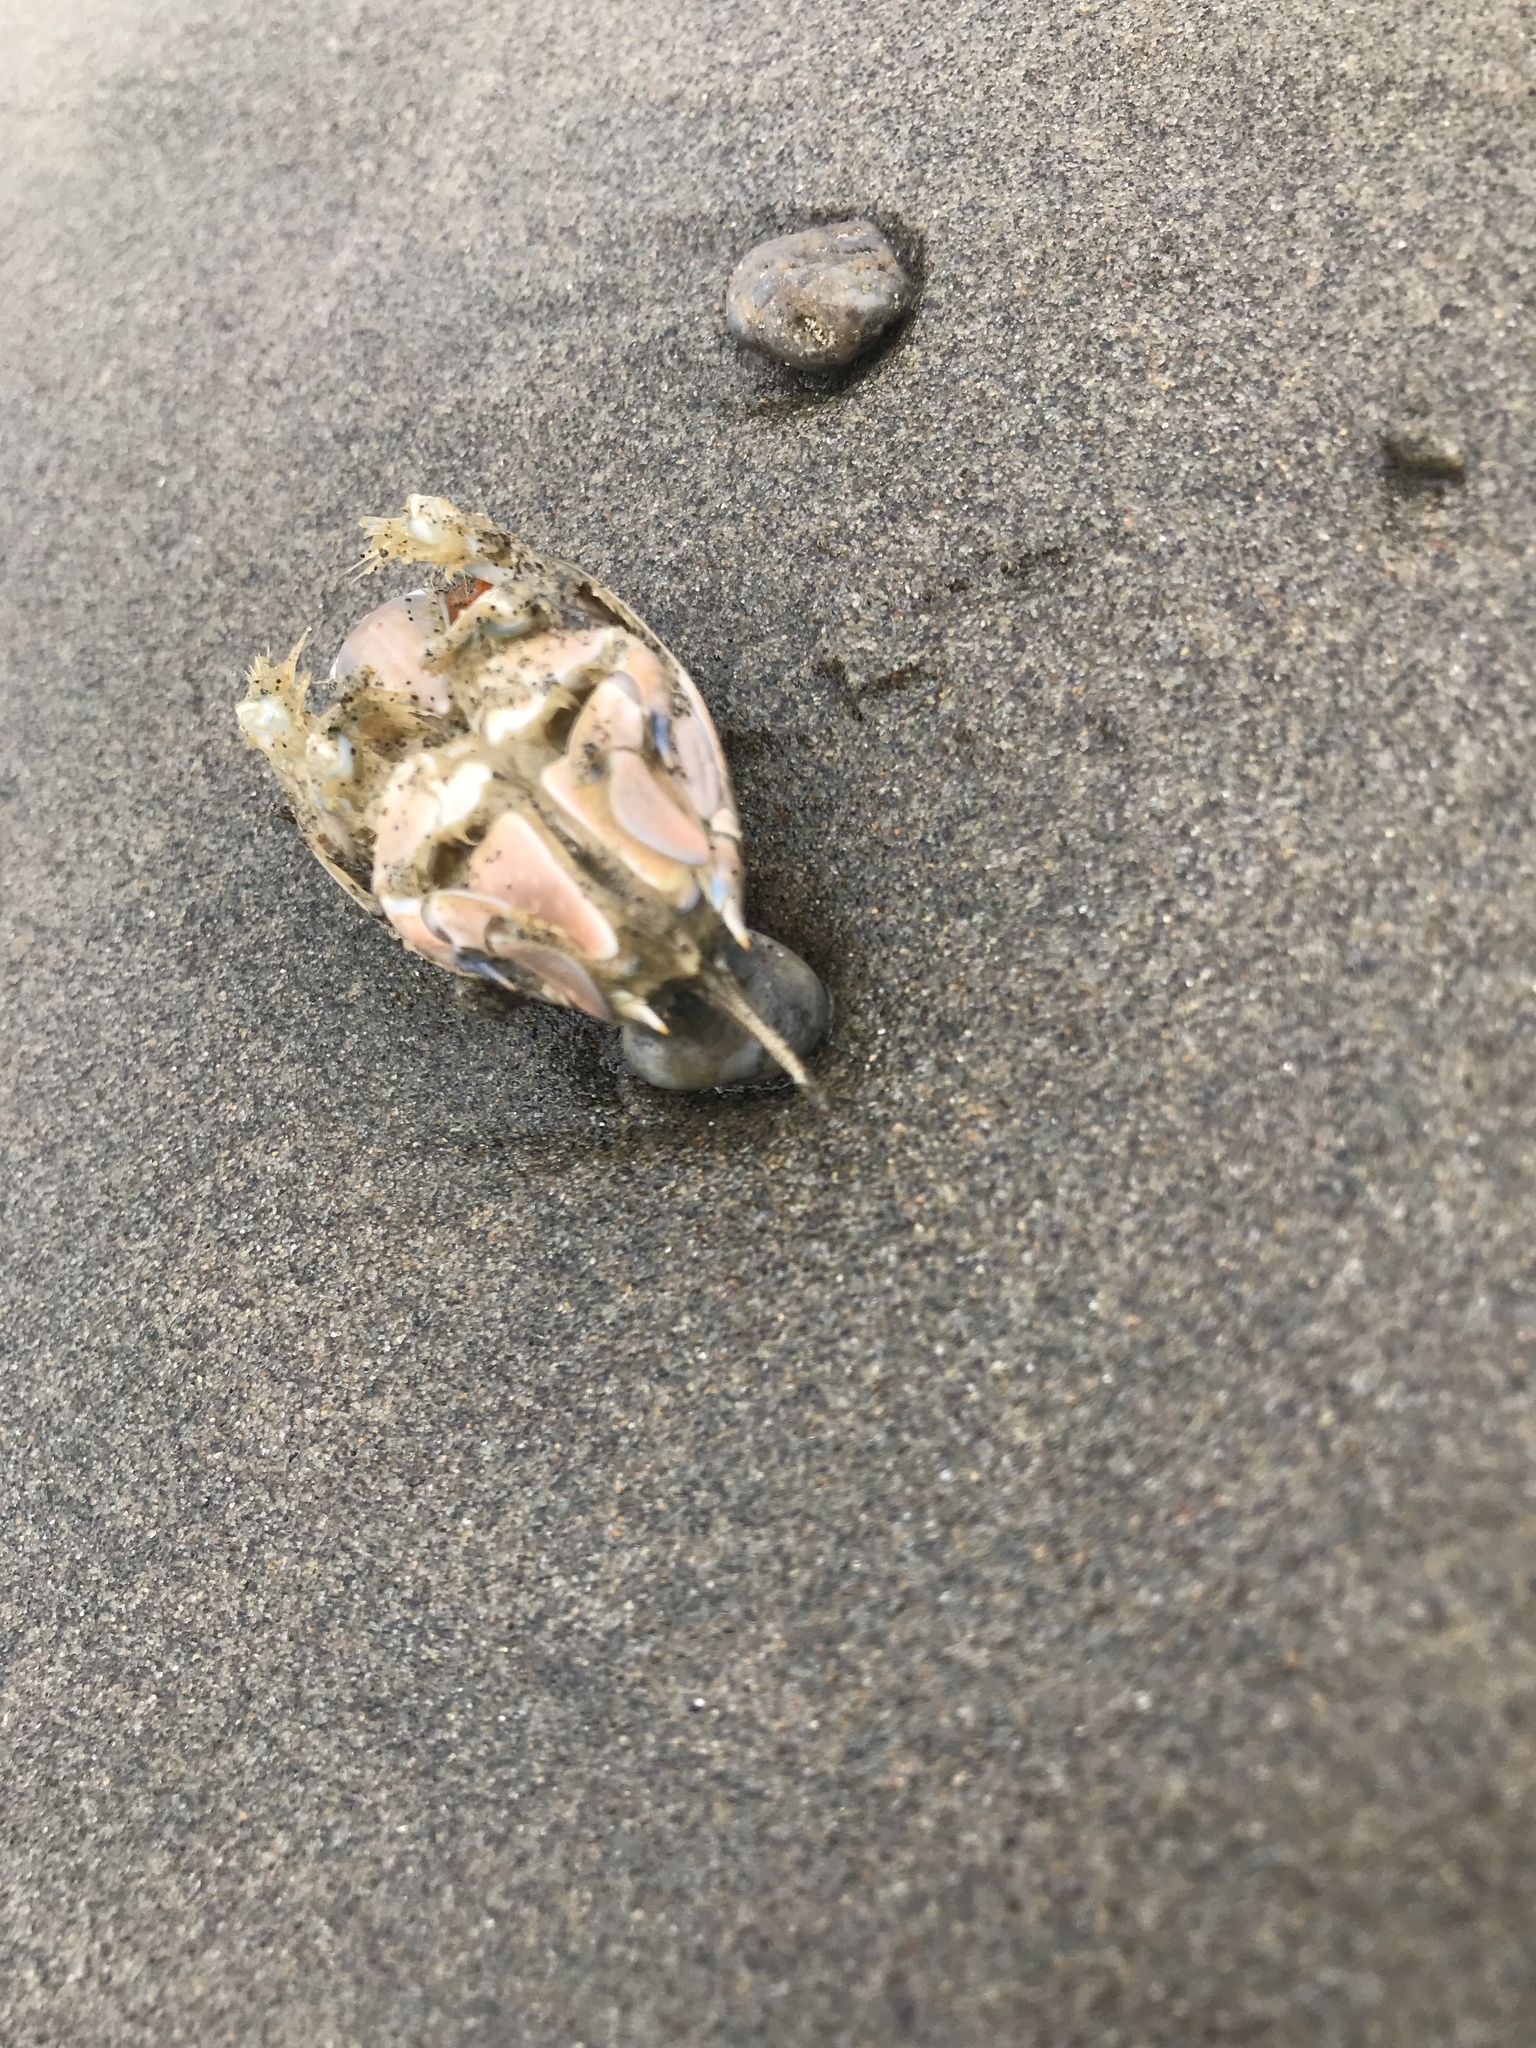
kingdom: Animalia
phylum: Arthropoda
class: Malacostraca
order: Decapoda
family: Hippidae
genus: Emerita
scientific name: Emerita analoga
